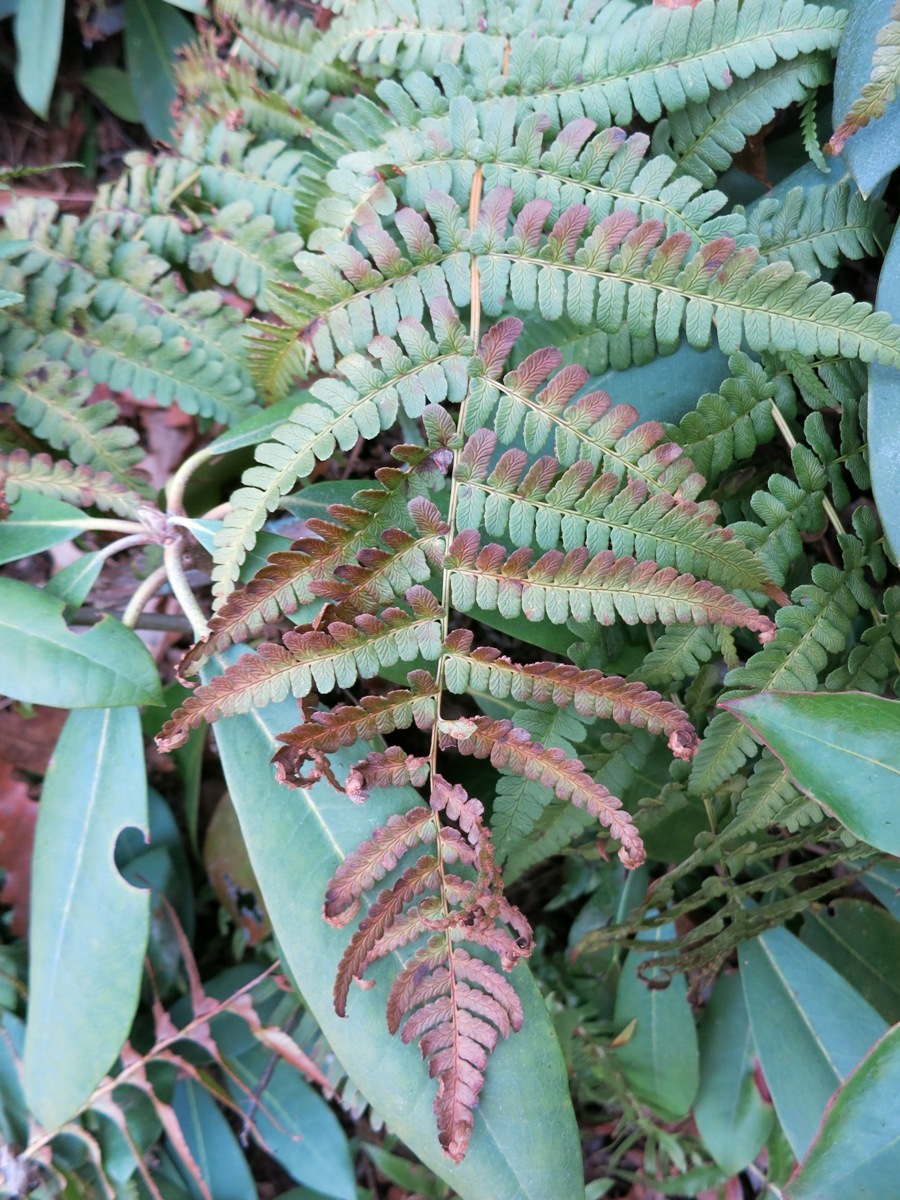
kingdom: Plantae
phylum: Tracheophyta
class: Polypodiopsida
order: Polypodiales
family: Dryopteridaceae
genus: Dryopteris
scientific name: Dryopteris marginalis
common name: Marginal wood fern
